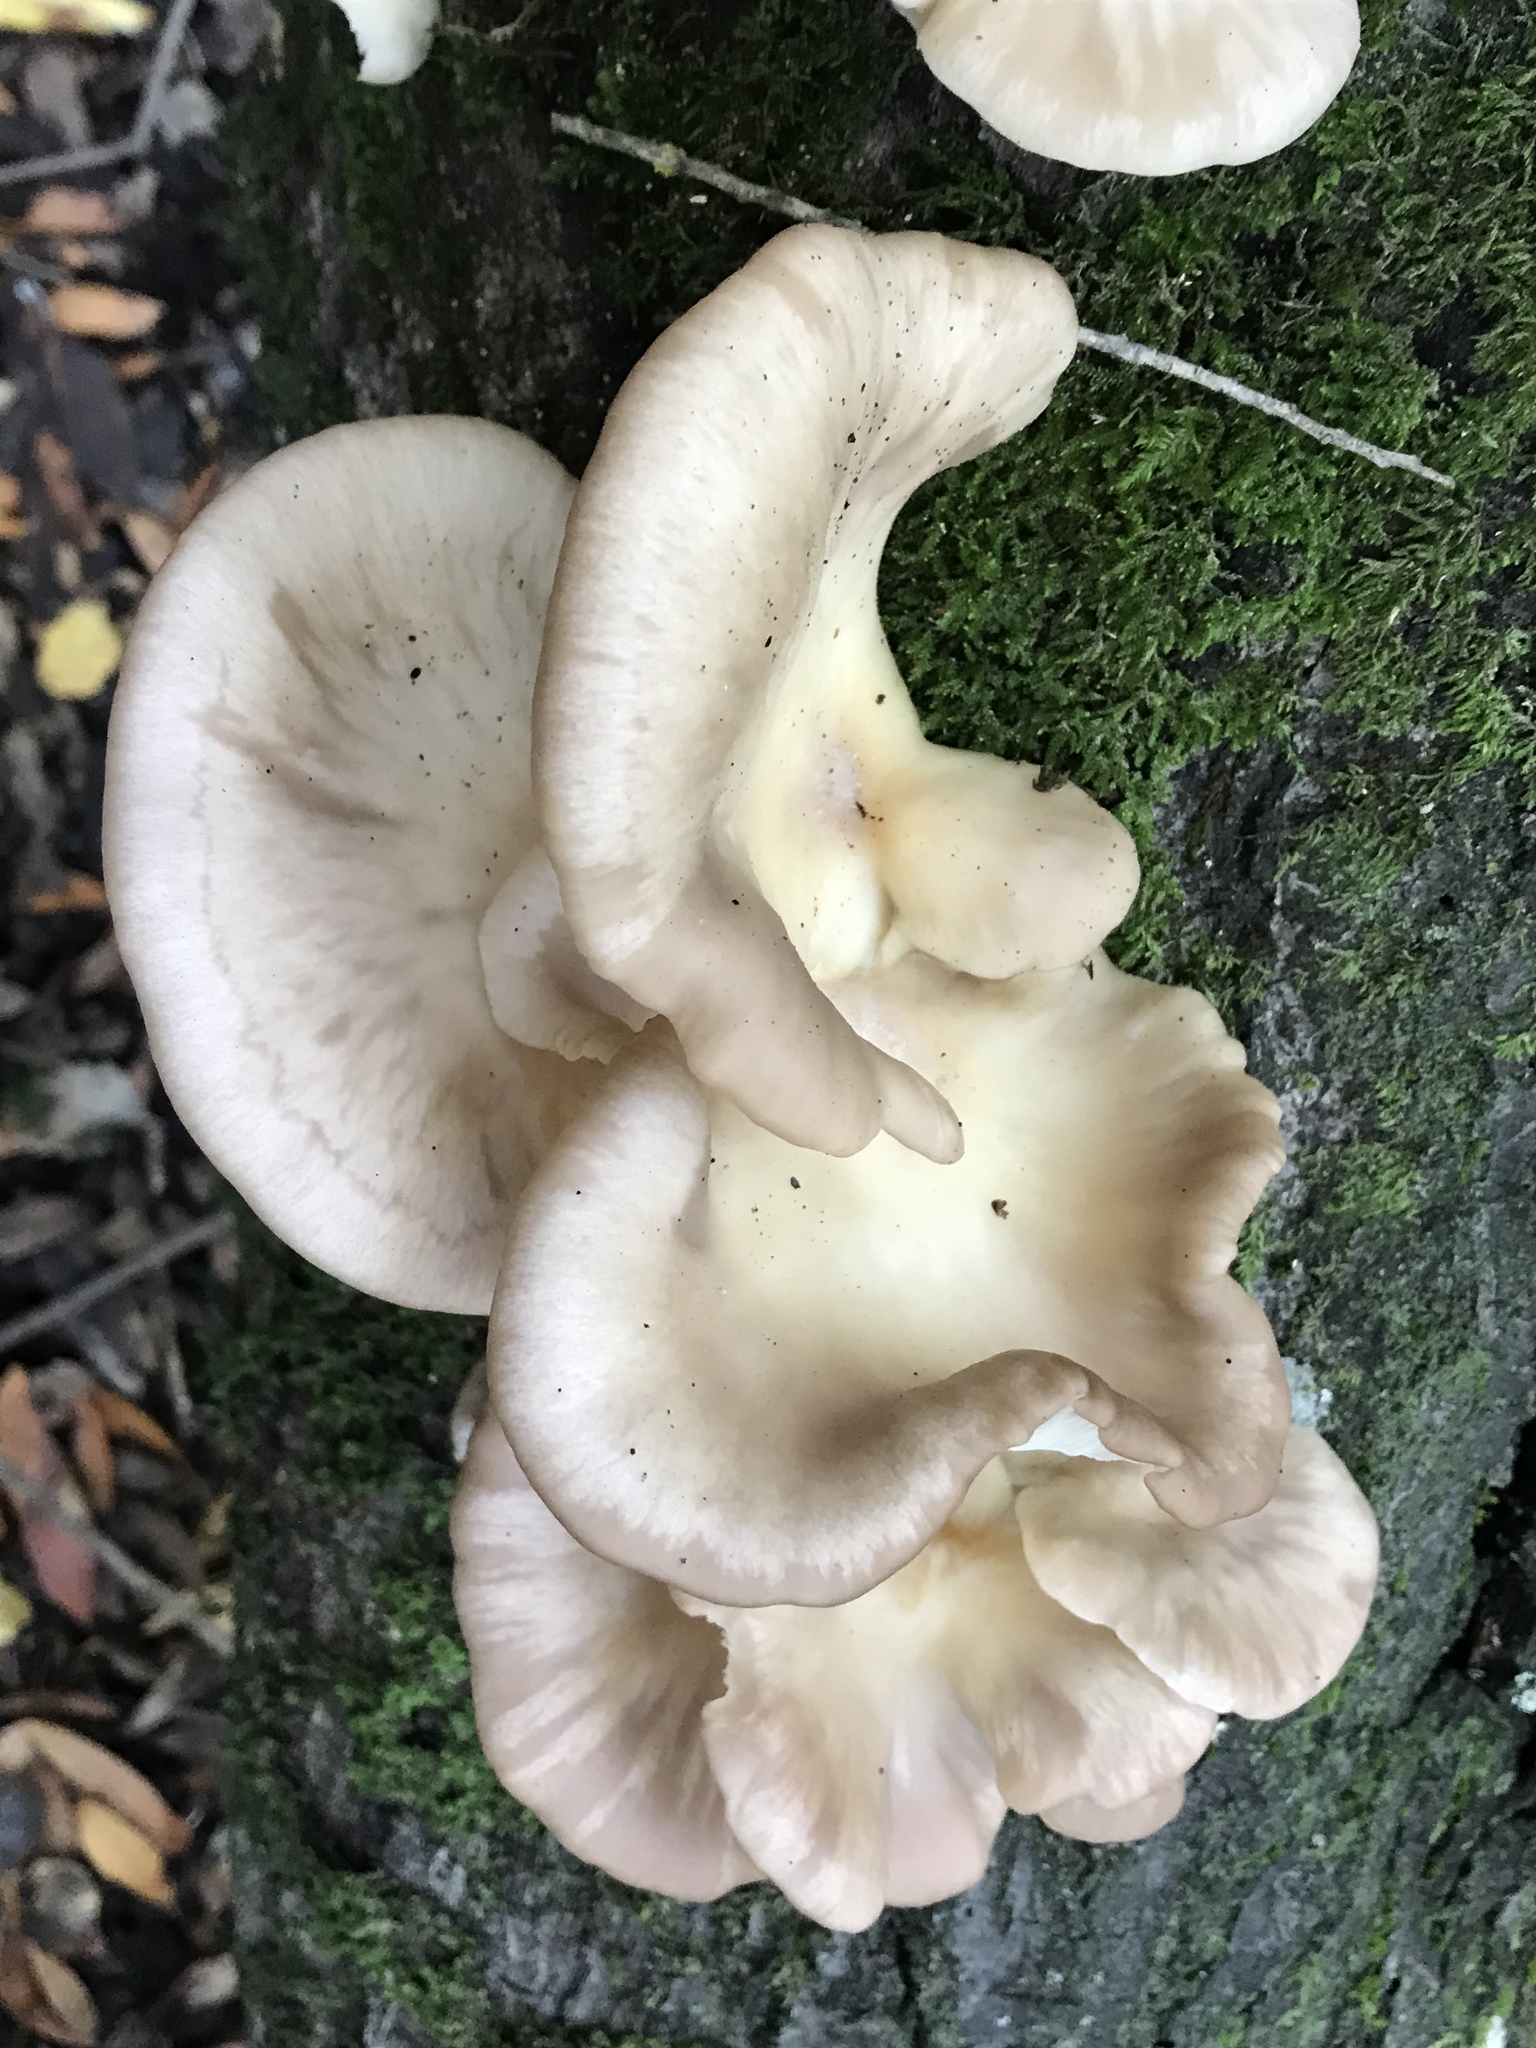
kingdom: Fungi
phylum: Basidiomycota
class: Agaricomycetes
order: Agaricales
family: Pleurotaceae
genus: Pleurotus
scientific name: Pleurotus ostreatus
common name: Oyster mushroom
